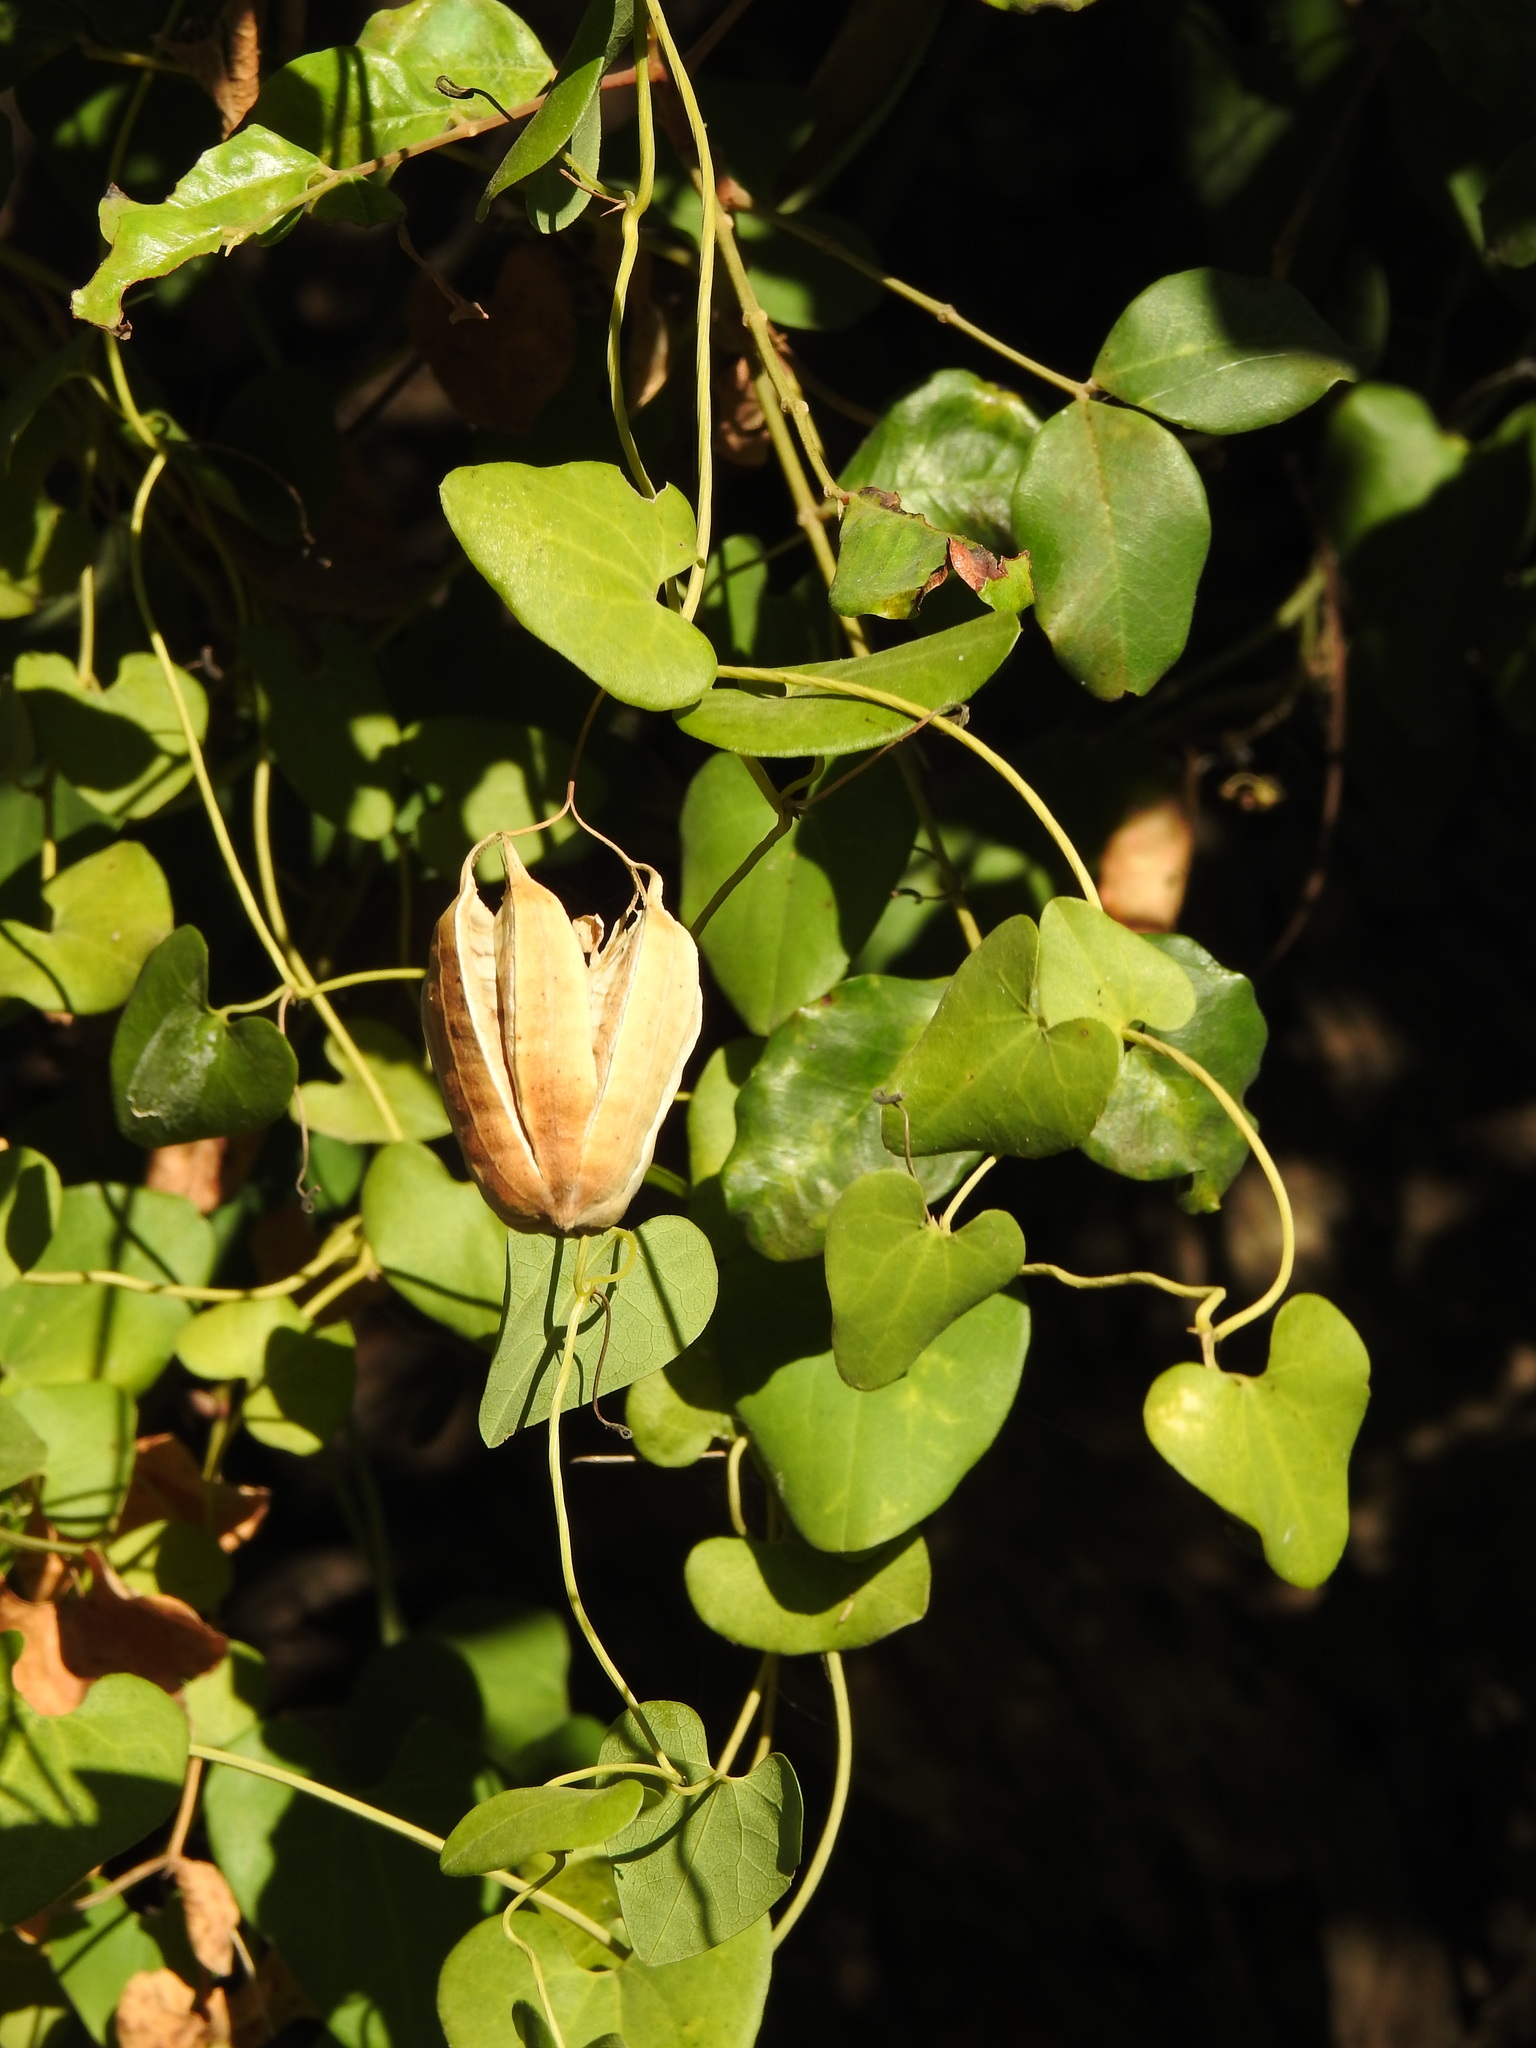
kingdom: Plantae
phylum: Tracheophyta
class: Magnoliopsida
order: Piperales
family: Aristolochiaceae
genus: Aristolochia
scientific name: Aristolochia baetica
